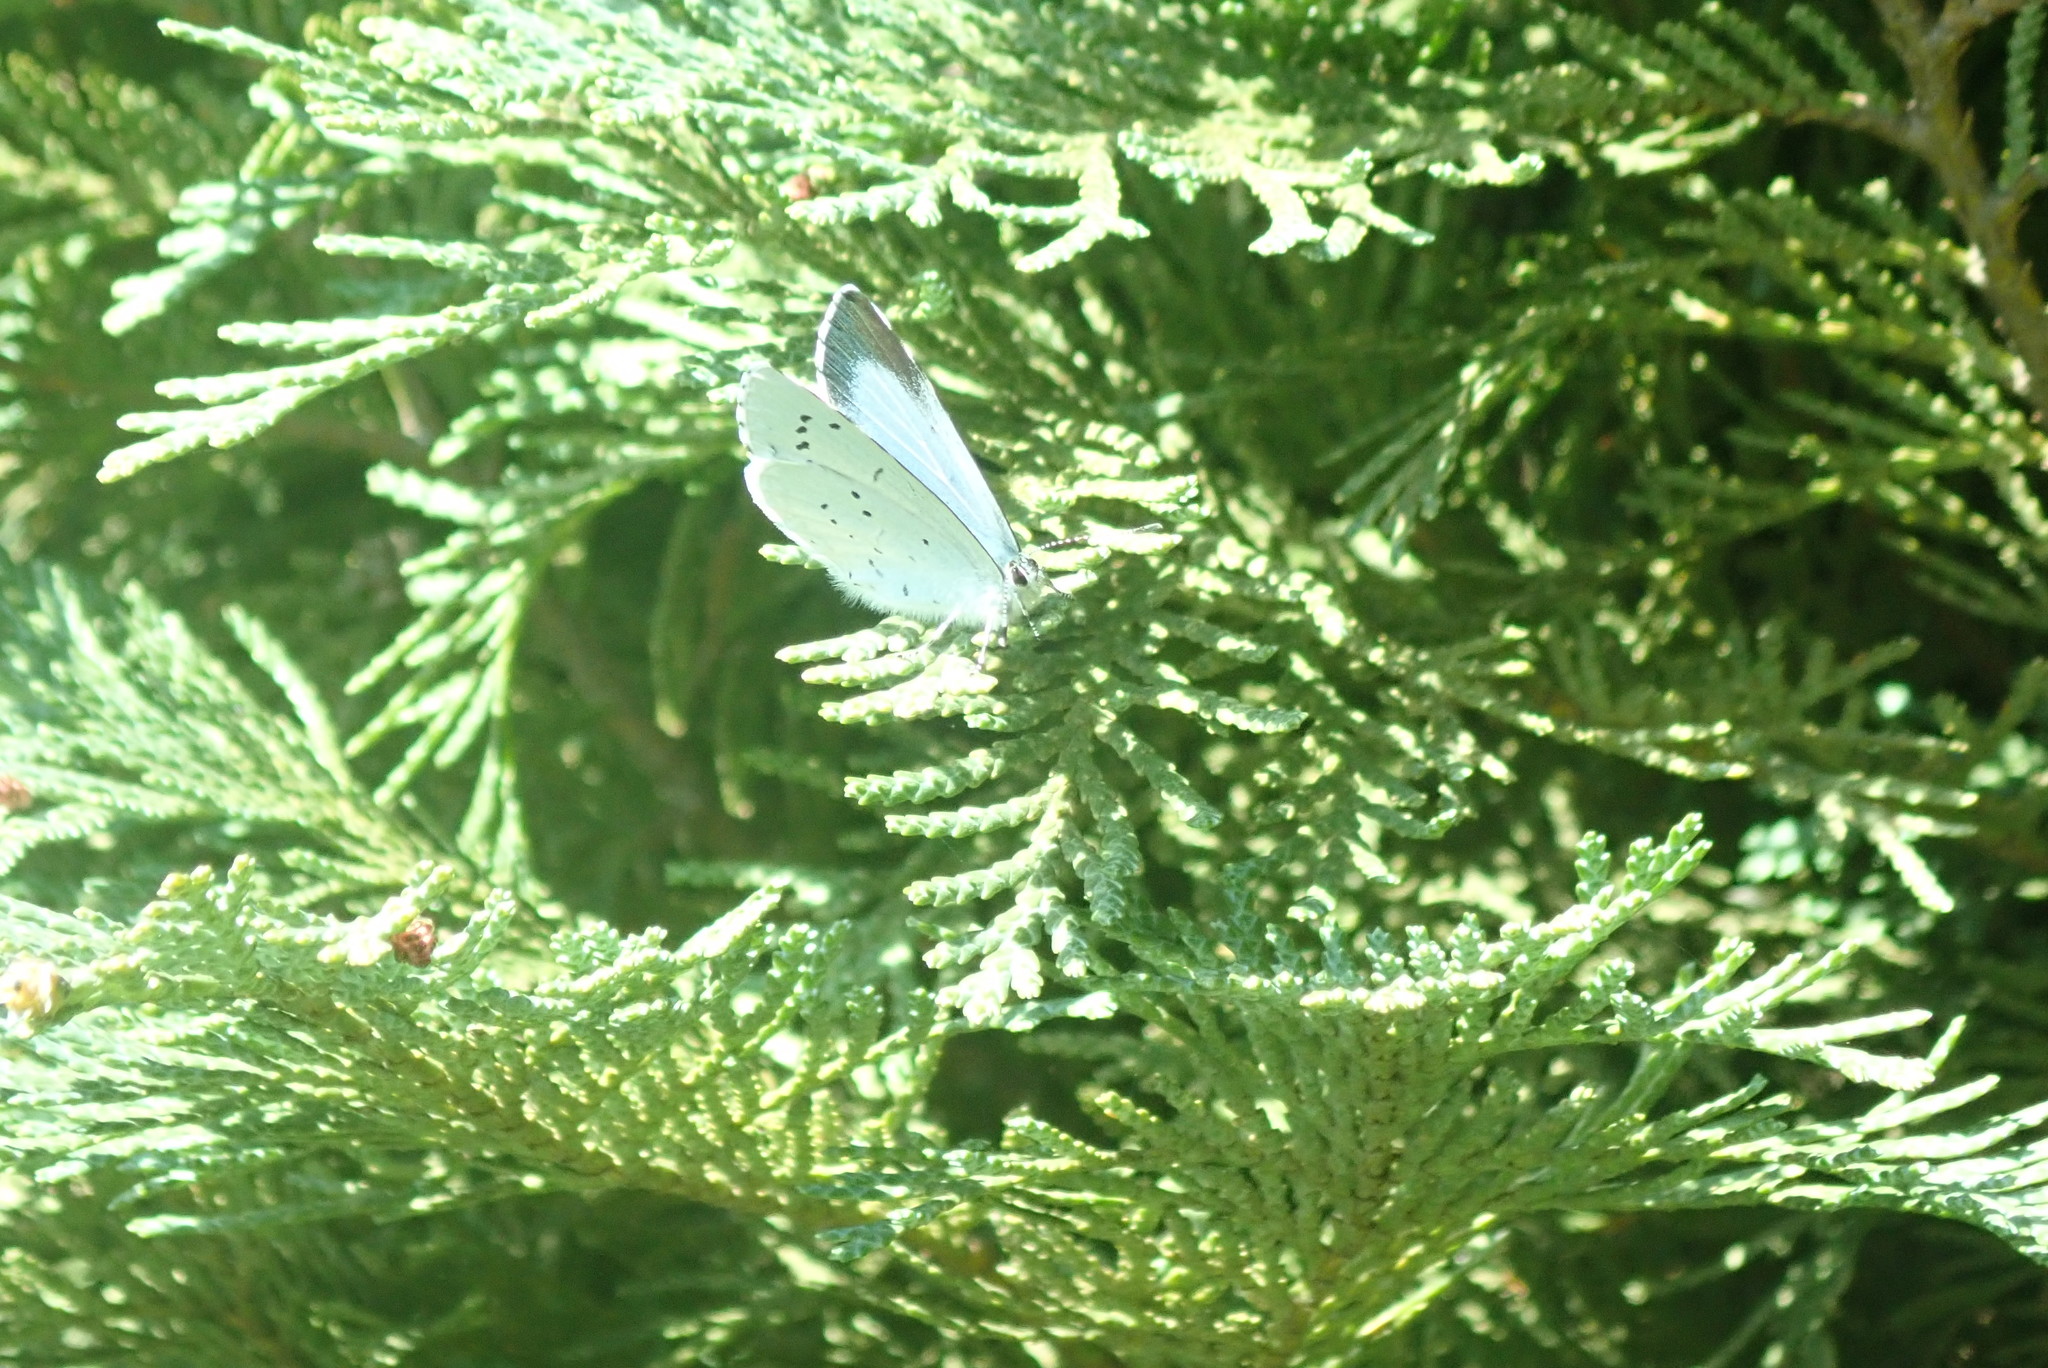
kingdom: Animalia
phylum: Arthropoda
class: Insecta
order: Lepidoptera
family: Lycaenidae
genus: Celastrina
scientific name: Celastrina argiolus
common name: Holly blue
